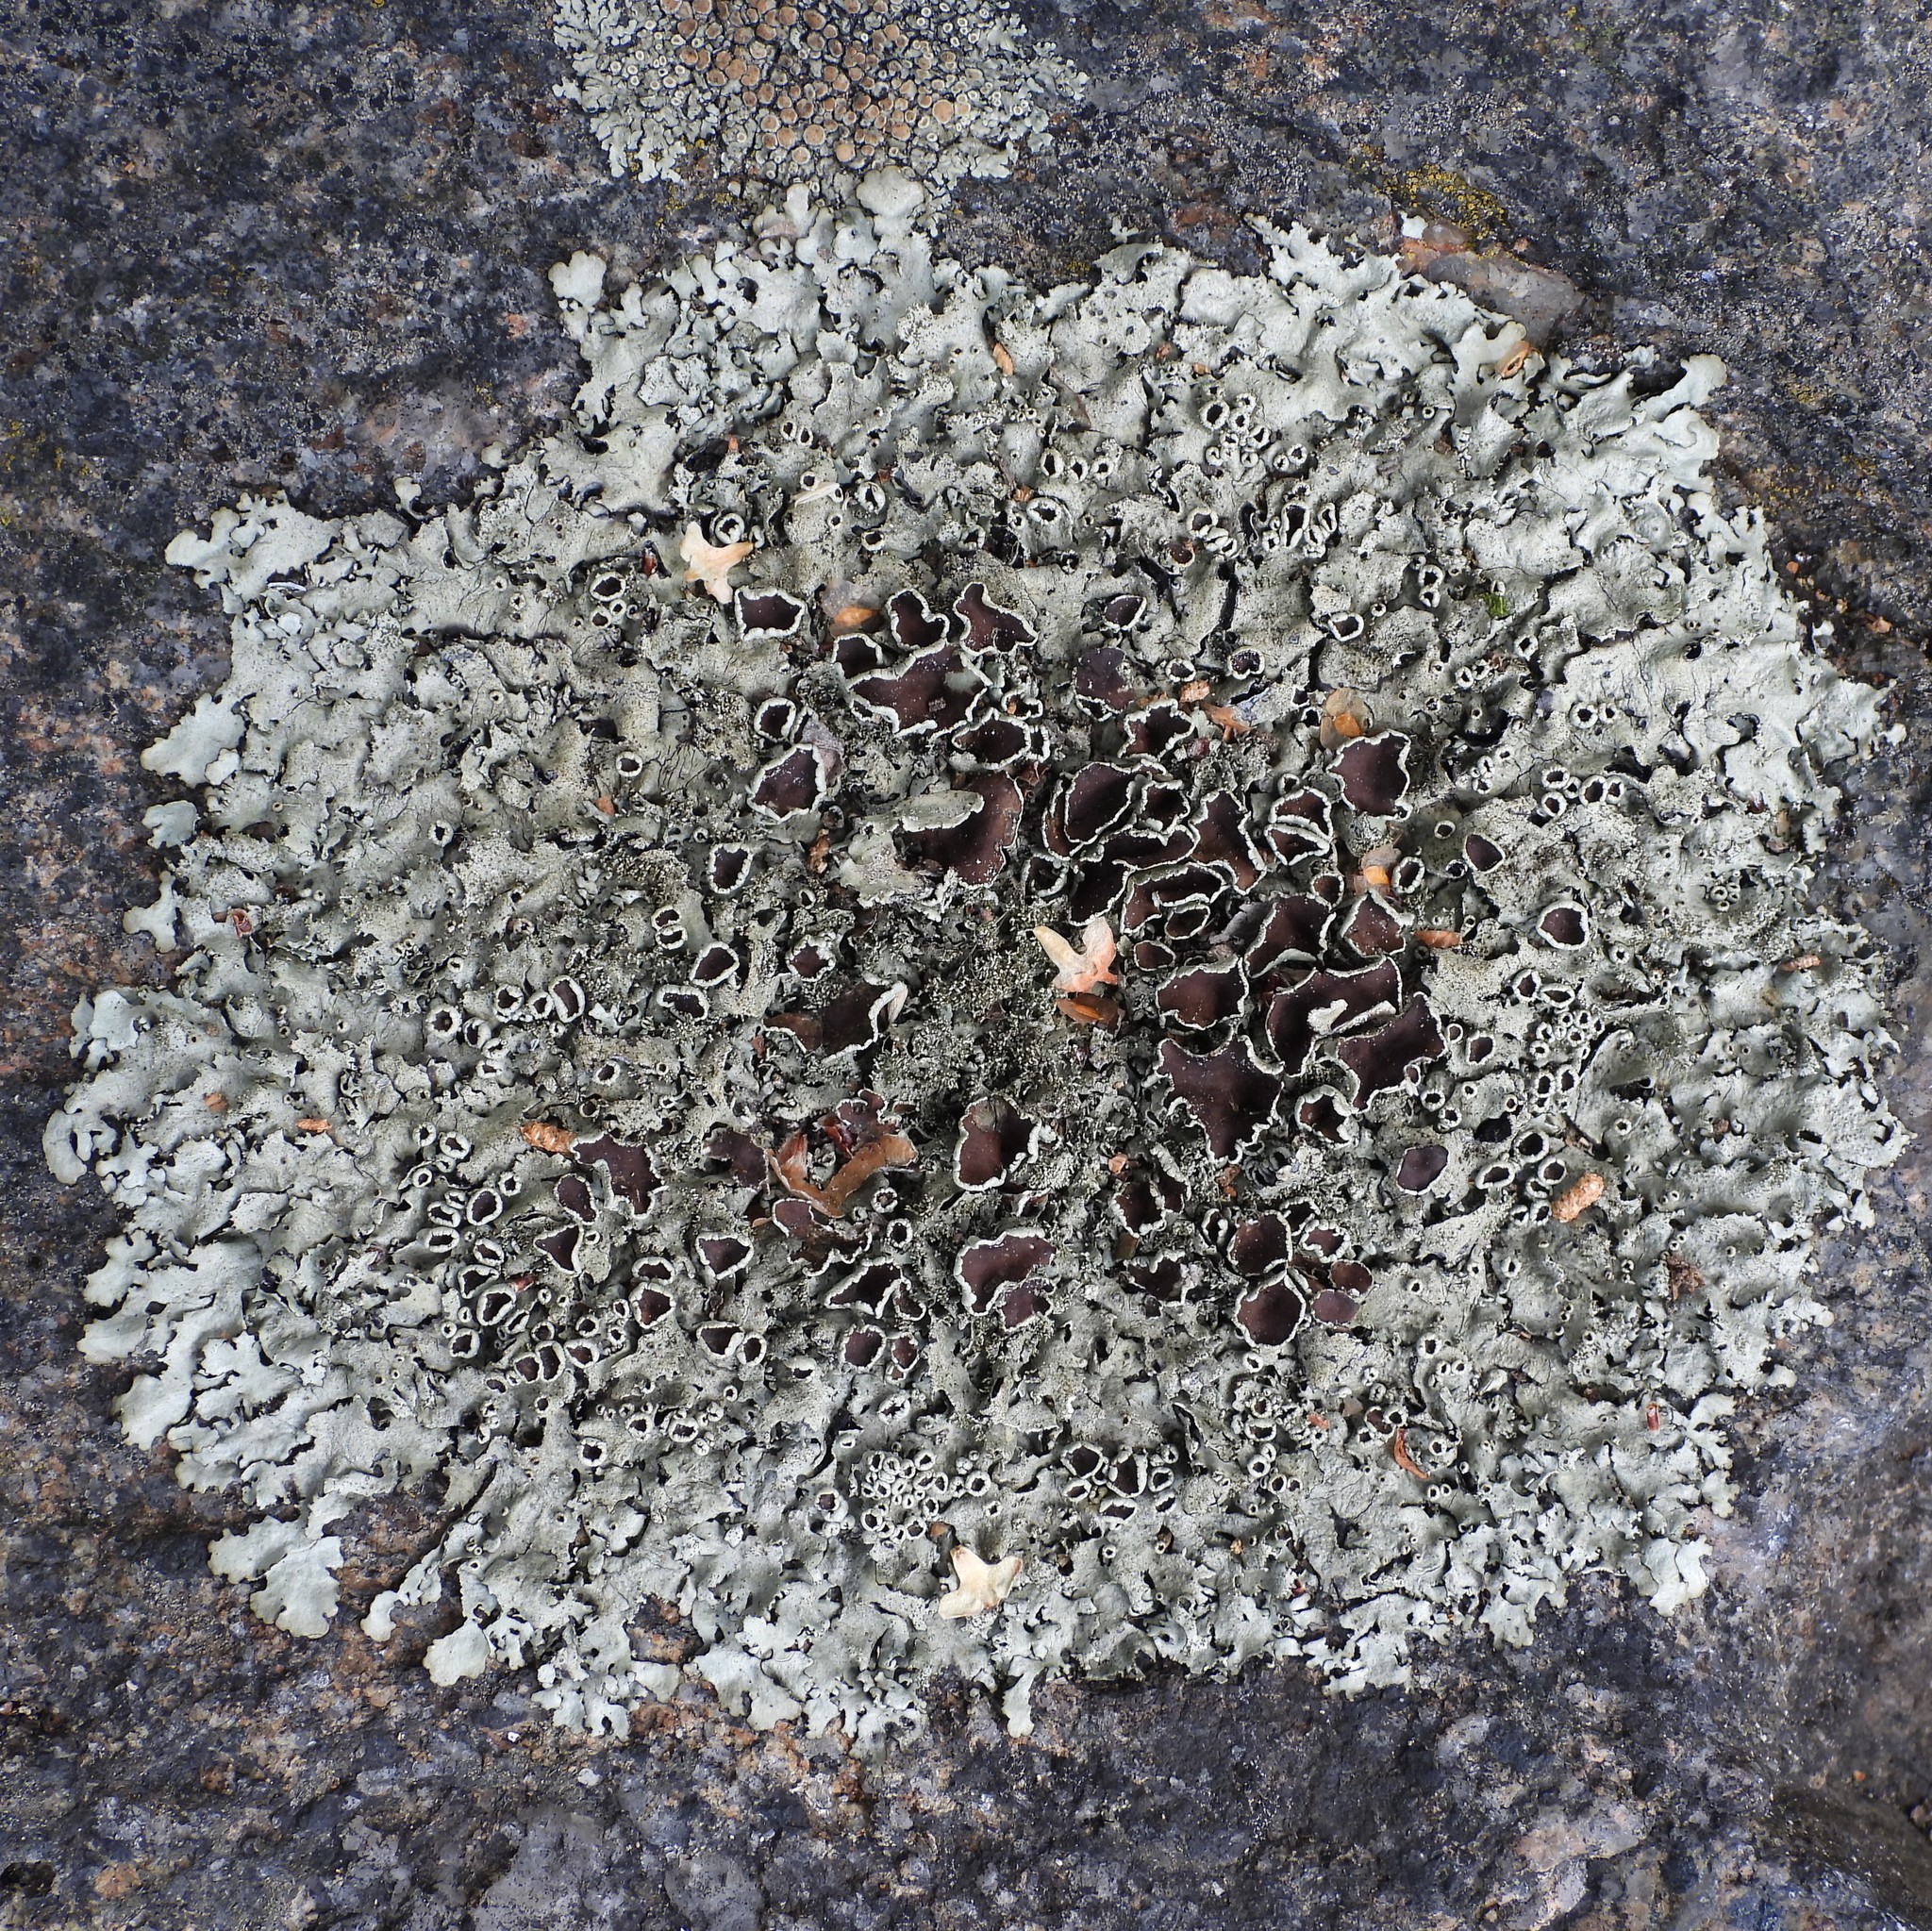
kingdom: Fungi
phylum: Ascomycota
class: Lecanoromycetes
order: Lecanorales
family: Parmeliaceae
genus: Xanthoparmelia
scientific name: Xanthoparmelia conspersa
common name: Peppered rock shield
